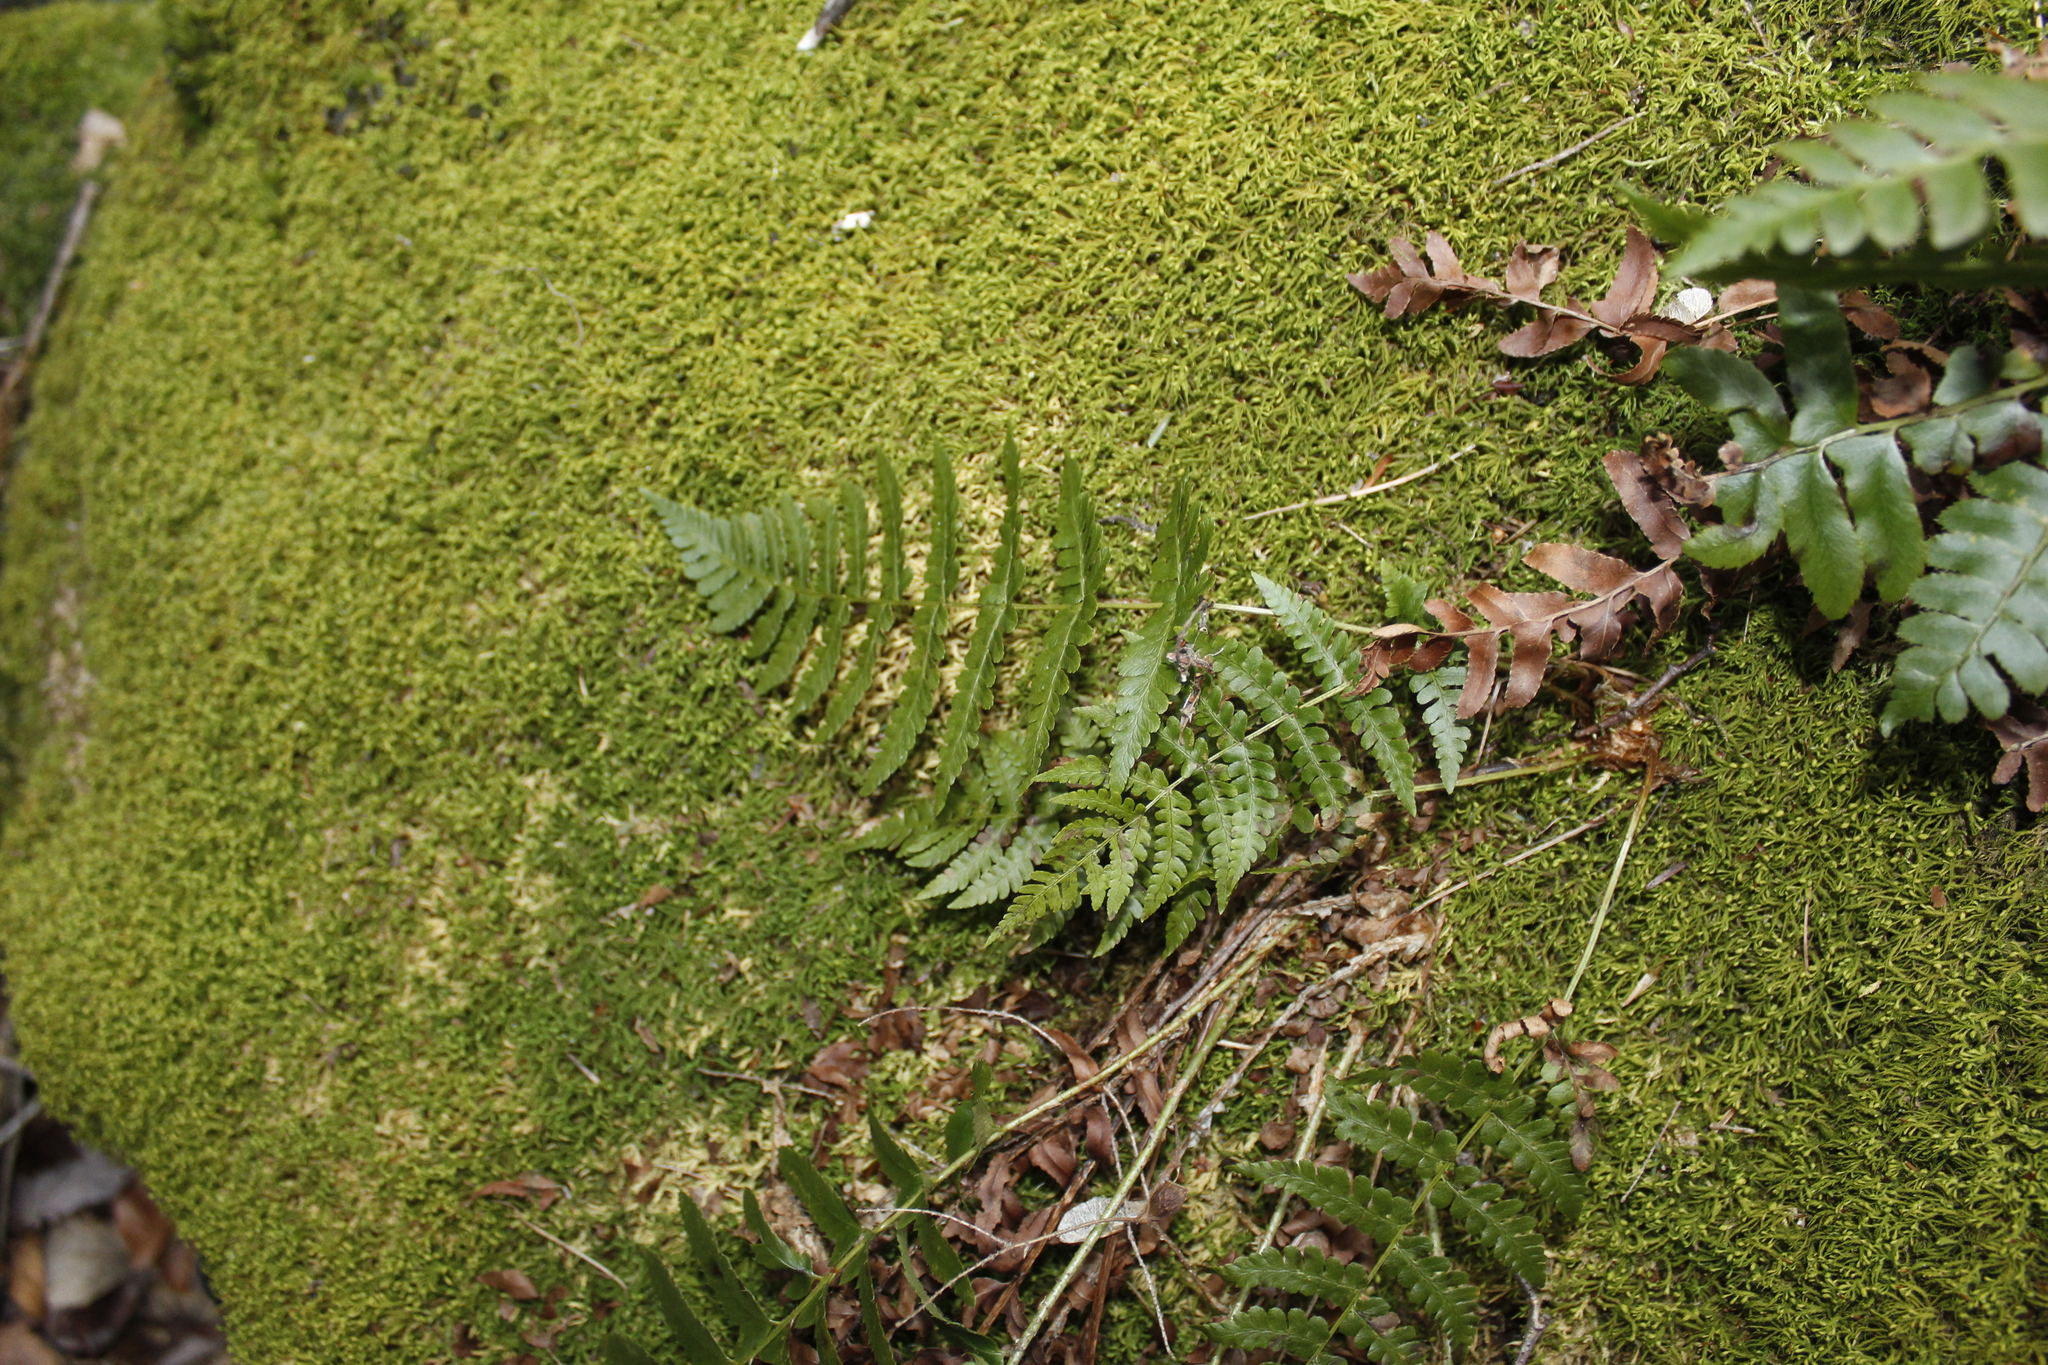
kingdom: Plantae
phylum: Tracheophyta
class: Polypodiopsida
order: Polypodiales
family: Dryopteridaceae
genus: Dryopteris
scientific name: Dryopteris marginalis
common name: Marginal wood fern
